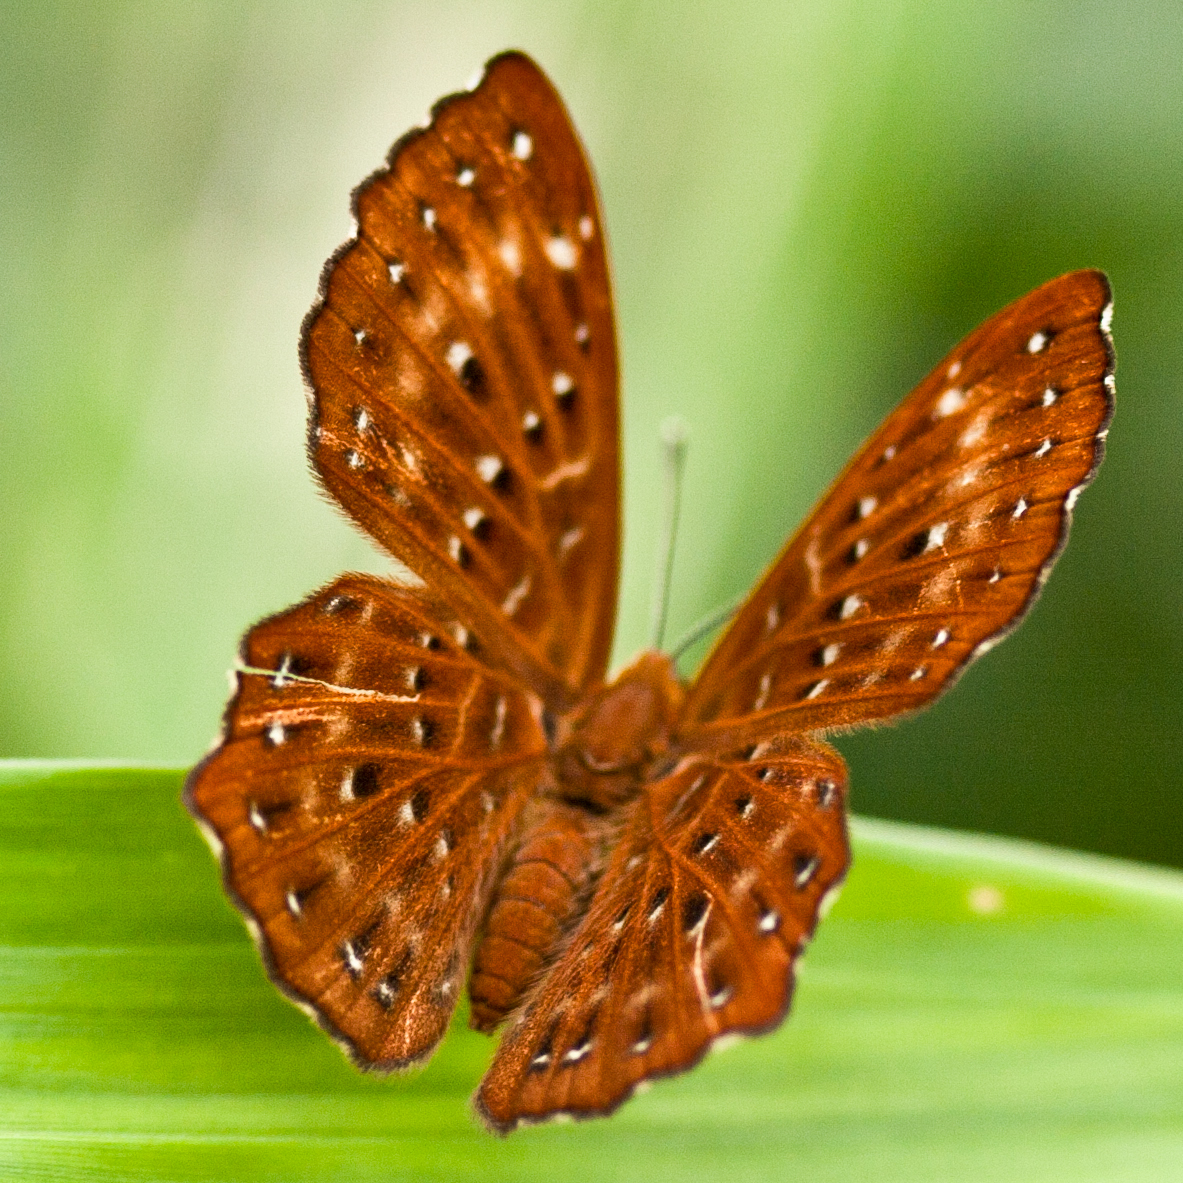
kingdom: Animalia
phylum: Arthropoda
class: Insecta
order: Lepidoptera
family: Riodinidae
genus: Zemeros
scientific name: Zemeros flegyas
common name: Punchinello
